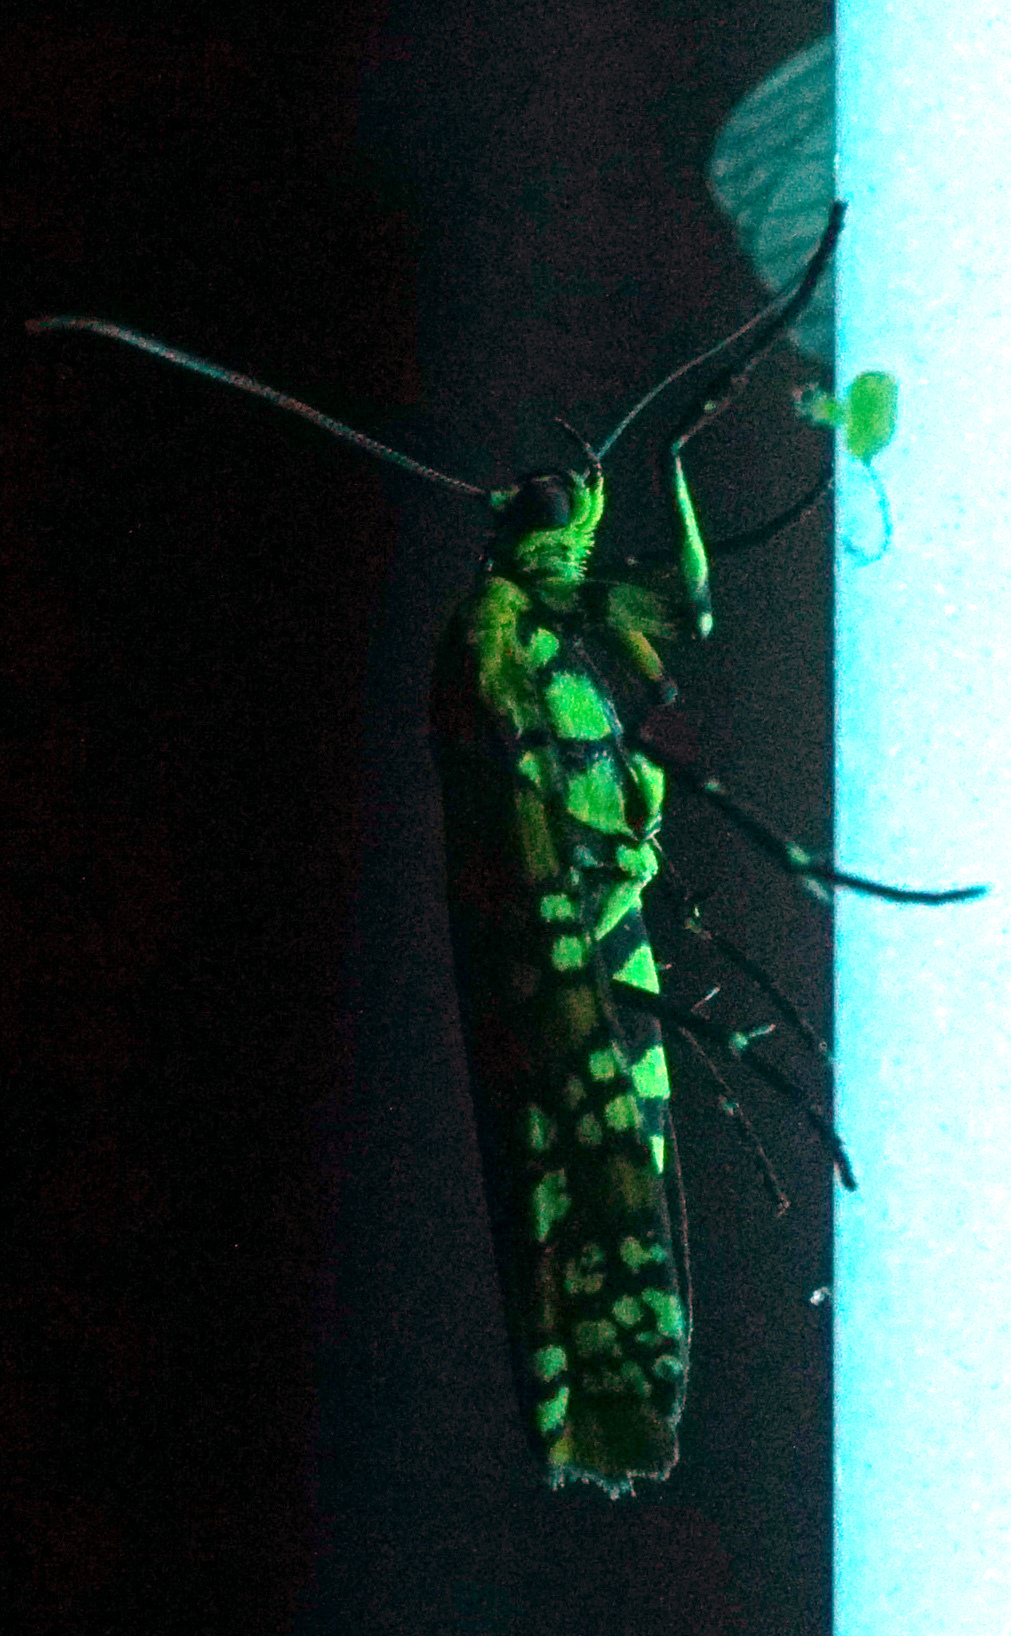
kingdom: Animalia
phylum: Arthropoda
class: Insecta
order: Lepidoptera
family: Attevidae
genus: Atteva
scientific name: Atteva punctella
